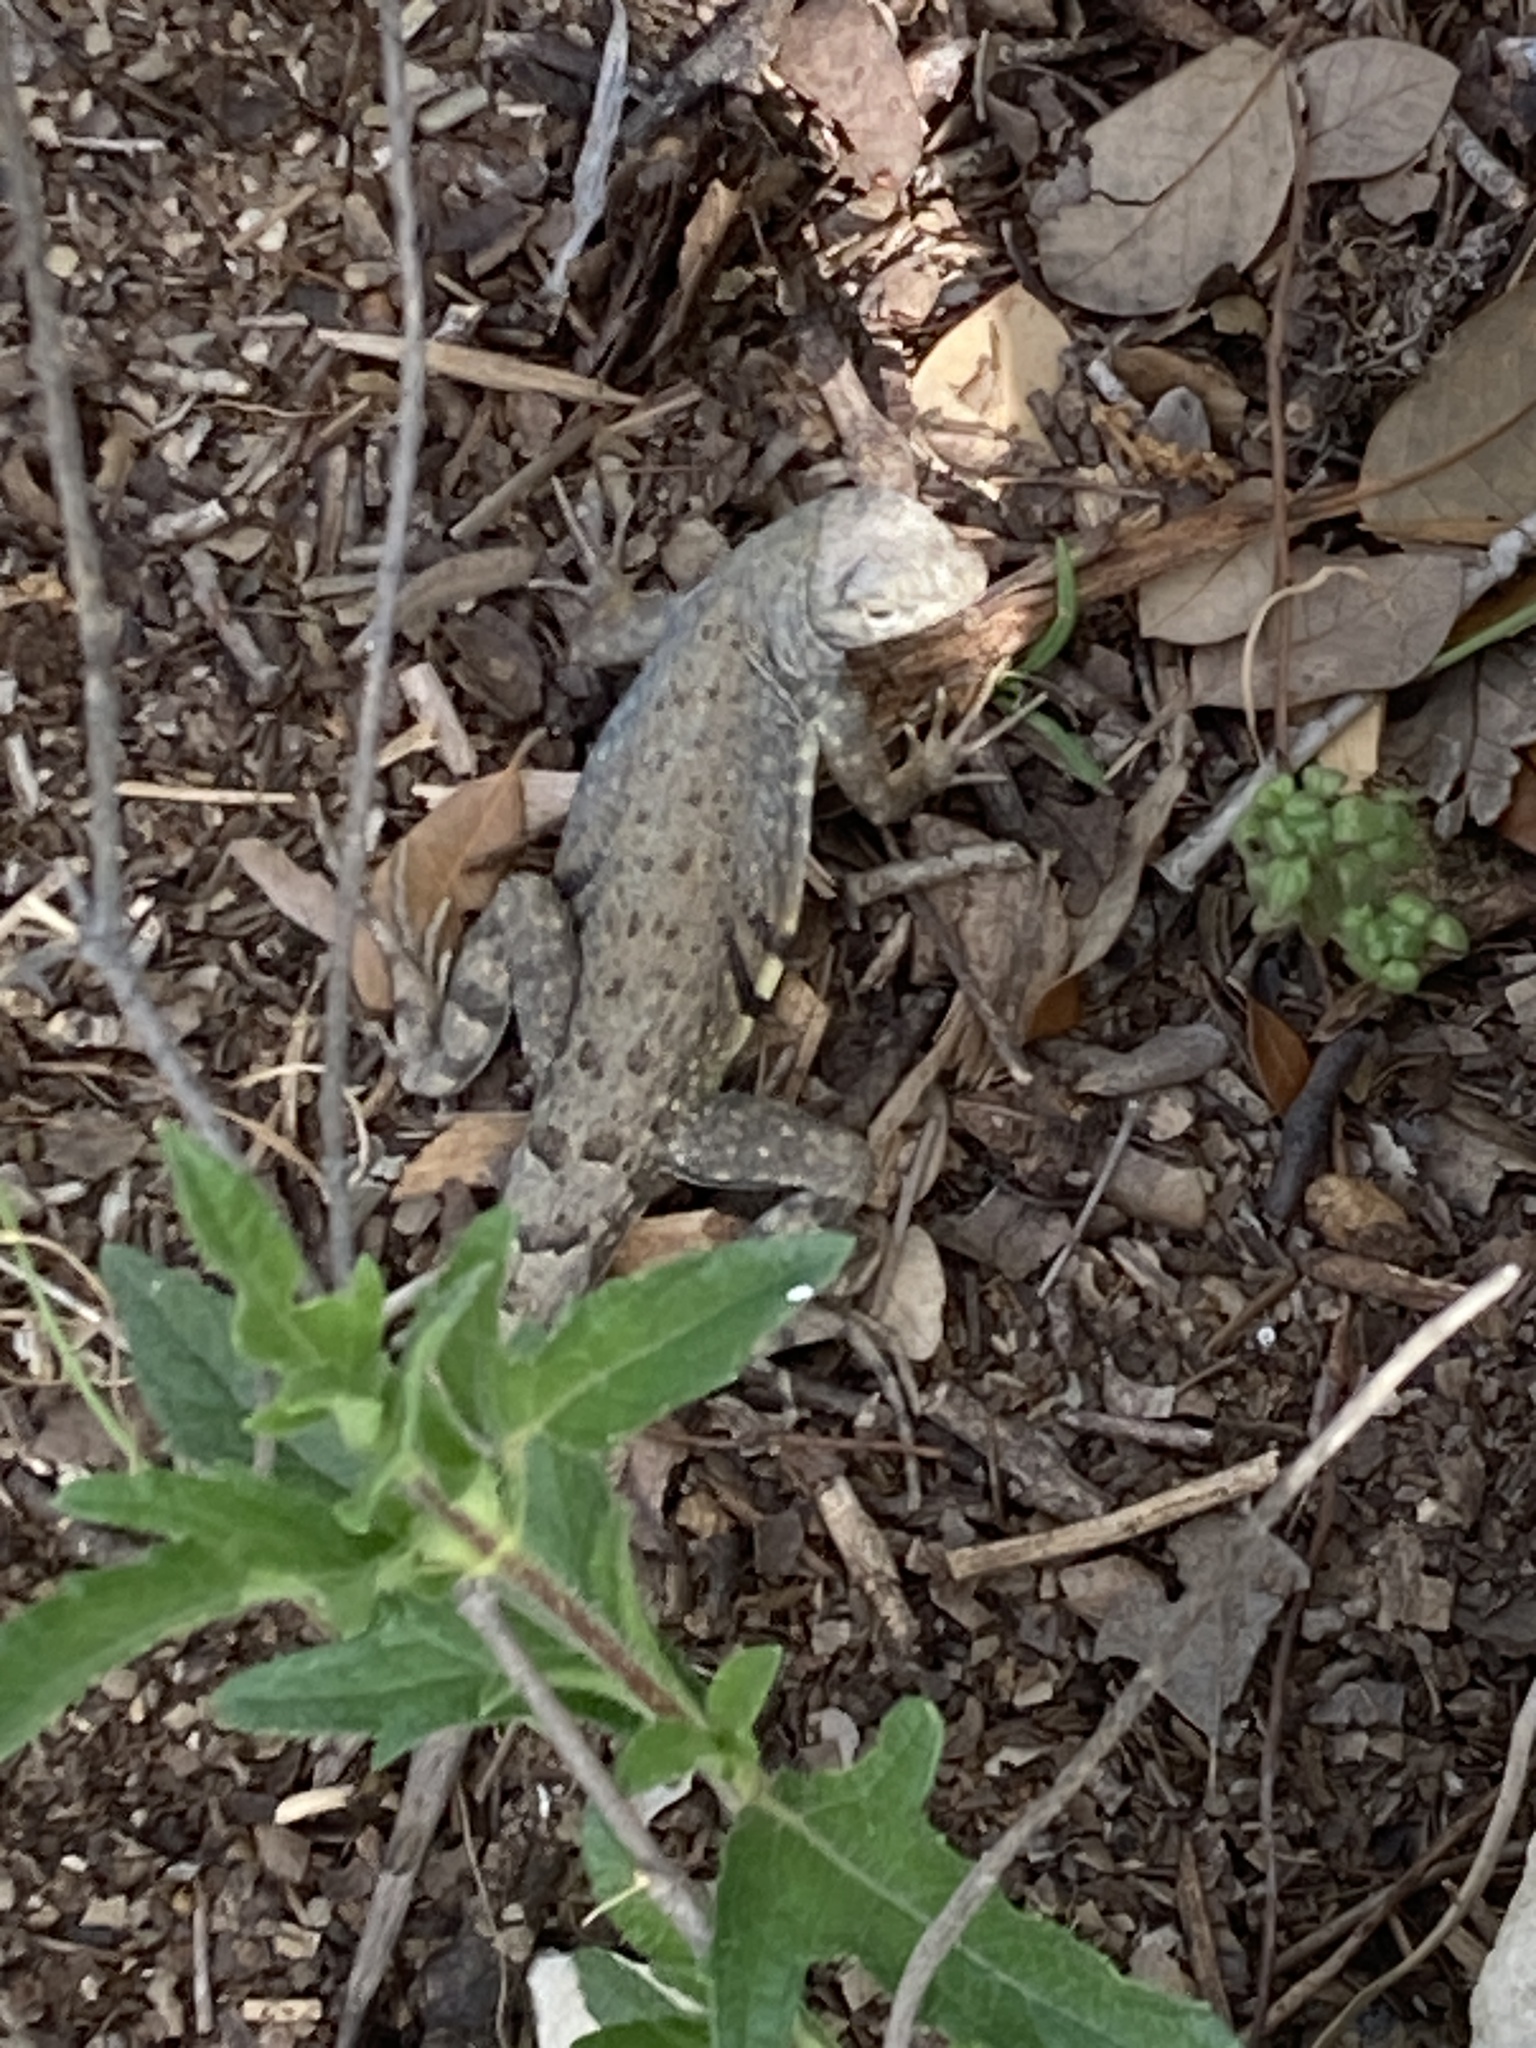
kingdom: Animalia
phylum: Chordata
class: Squamata
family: Phrynosomatidae
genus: Cophosaurus
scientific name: Cophosaurus texanus
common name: Greater earless lizard
